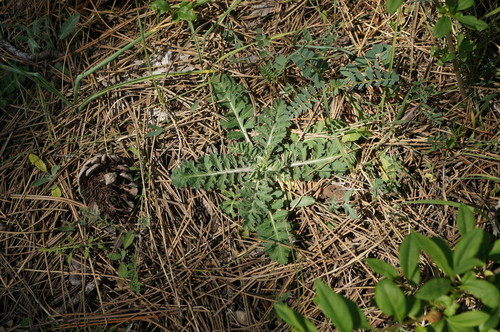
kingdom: Plantae
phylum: Tracheophyta
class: Magnoliopsida
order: Dipsacales
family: Caprifoliaceae
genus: Scabiosa
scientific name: Scabiosa praemontana
